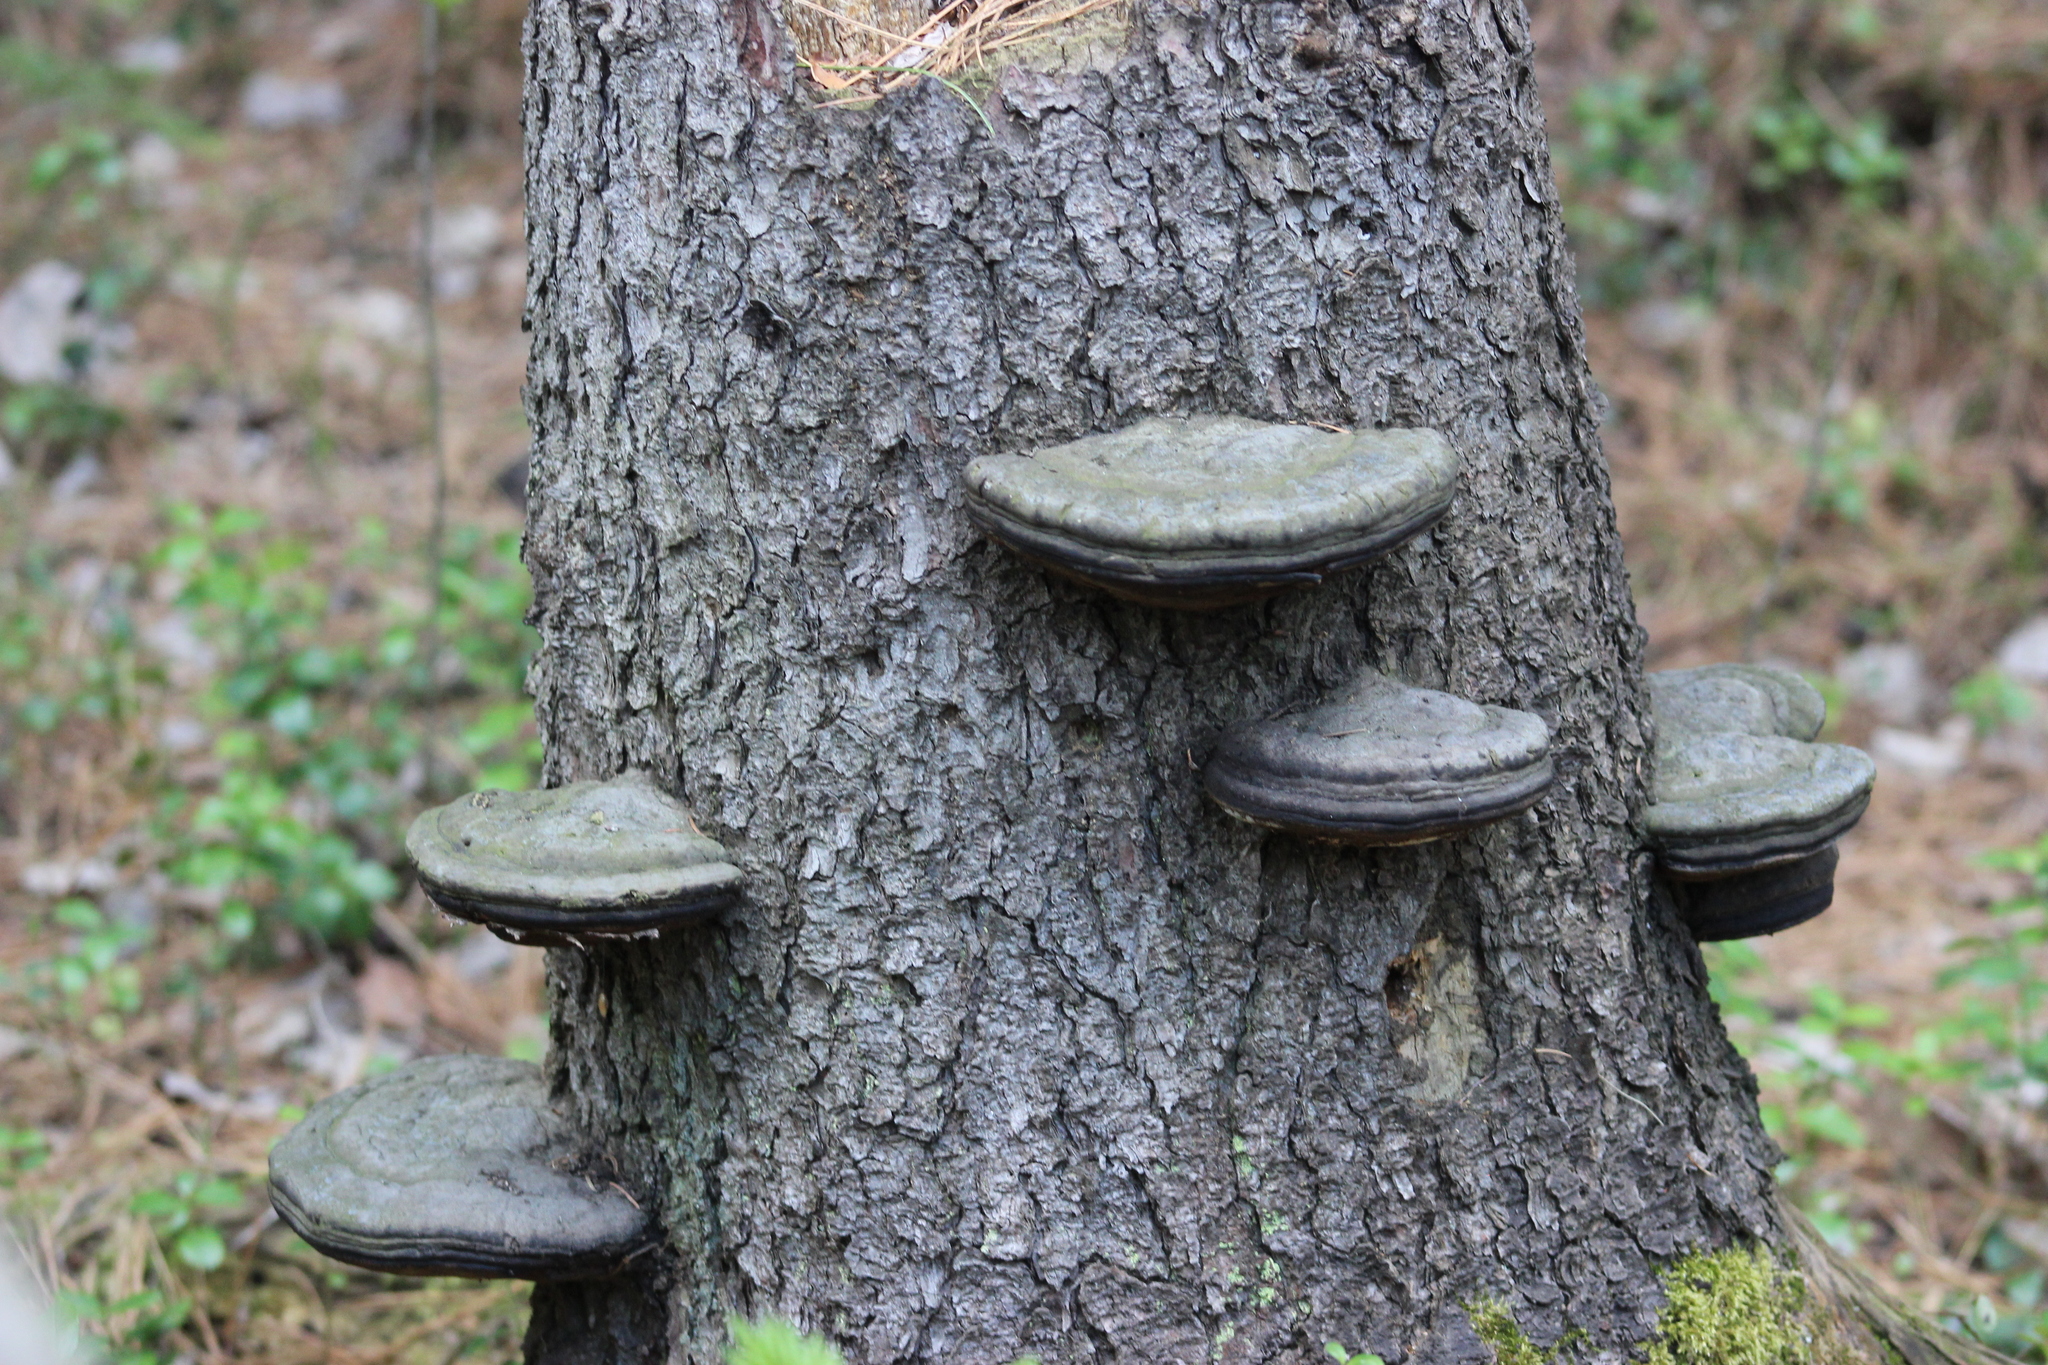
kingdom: Fungi
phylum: Basidiomycota
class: Agaricomycetes
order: Polyporales
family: Fomitopsidaceae
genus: Fomitopsis
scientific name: Fomitopsis pinicola
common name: Red-belted bracket
